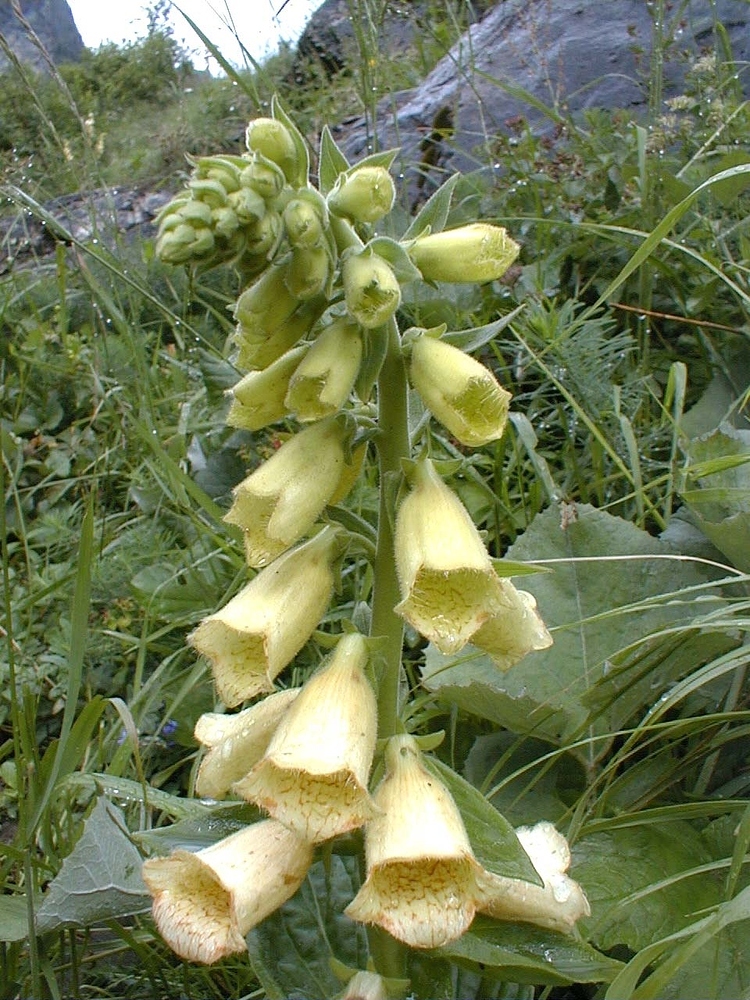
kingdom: Plantae
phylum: Tracheophyta
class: Magnoliopsida
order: Lamiales
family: Plantaginaceae
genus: Digitalis
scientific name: Digitalis grandiflora
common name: Yellow foxglove
